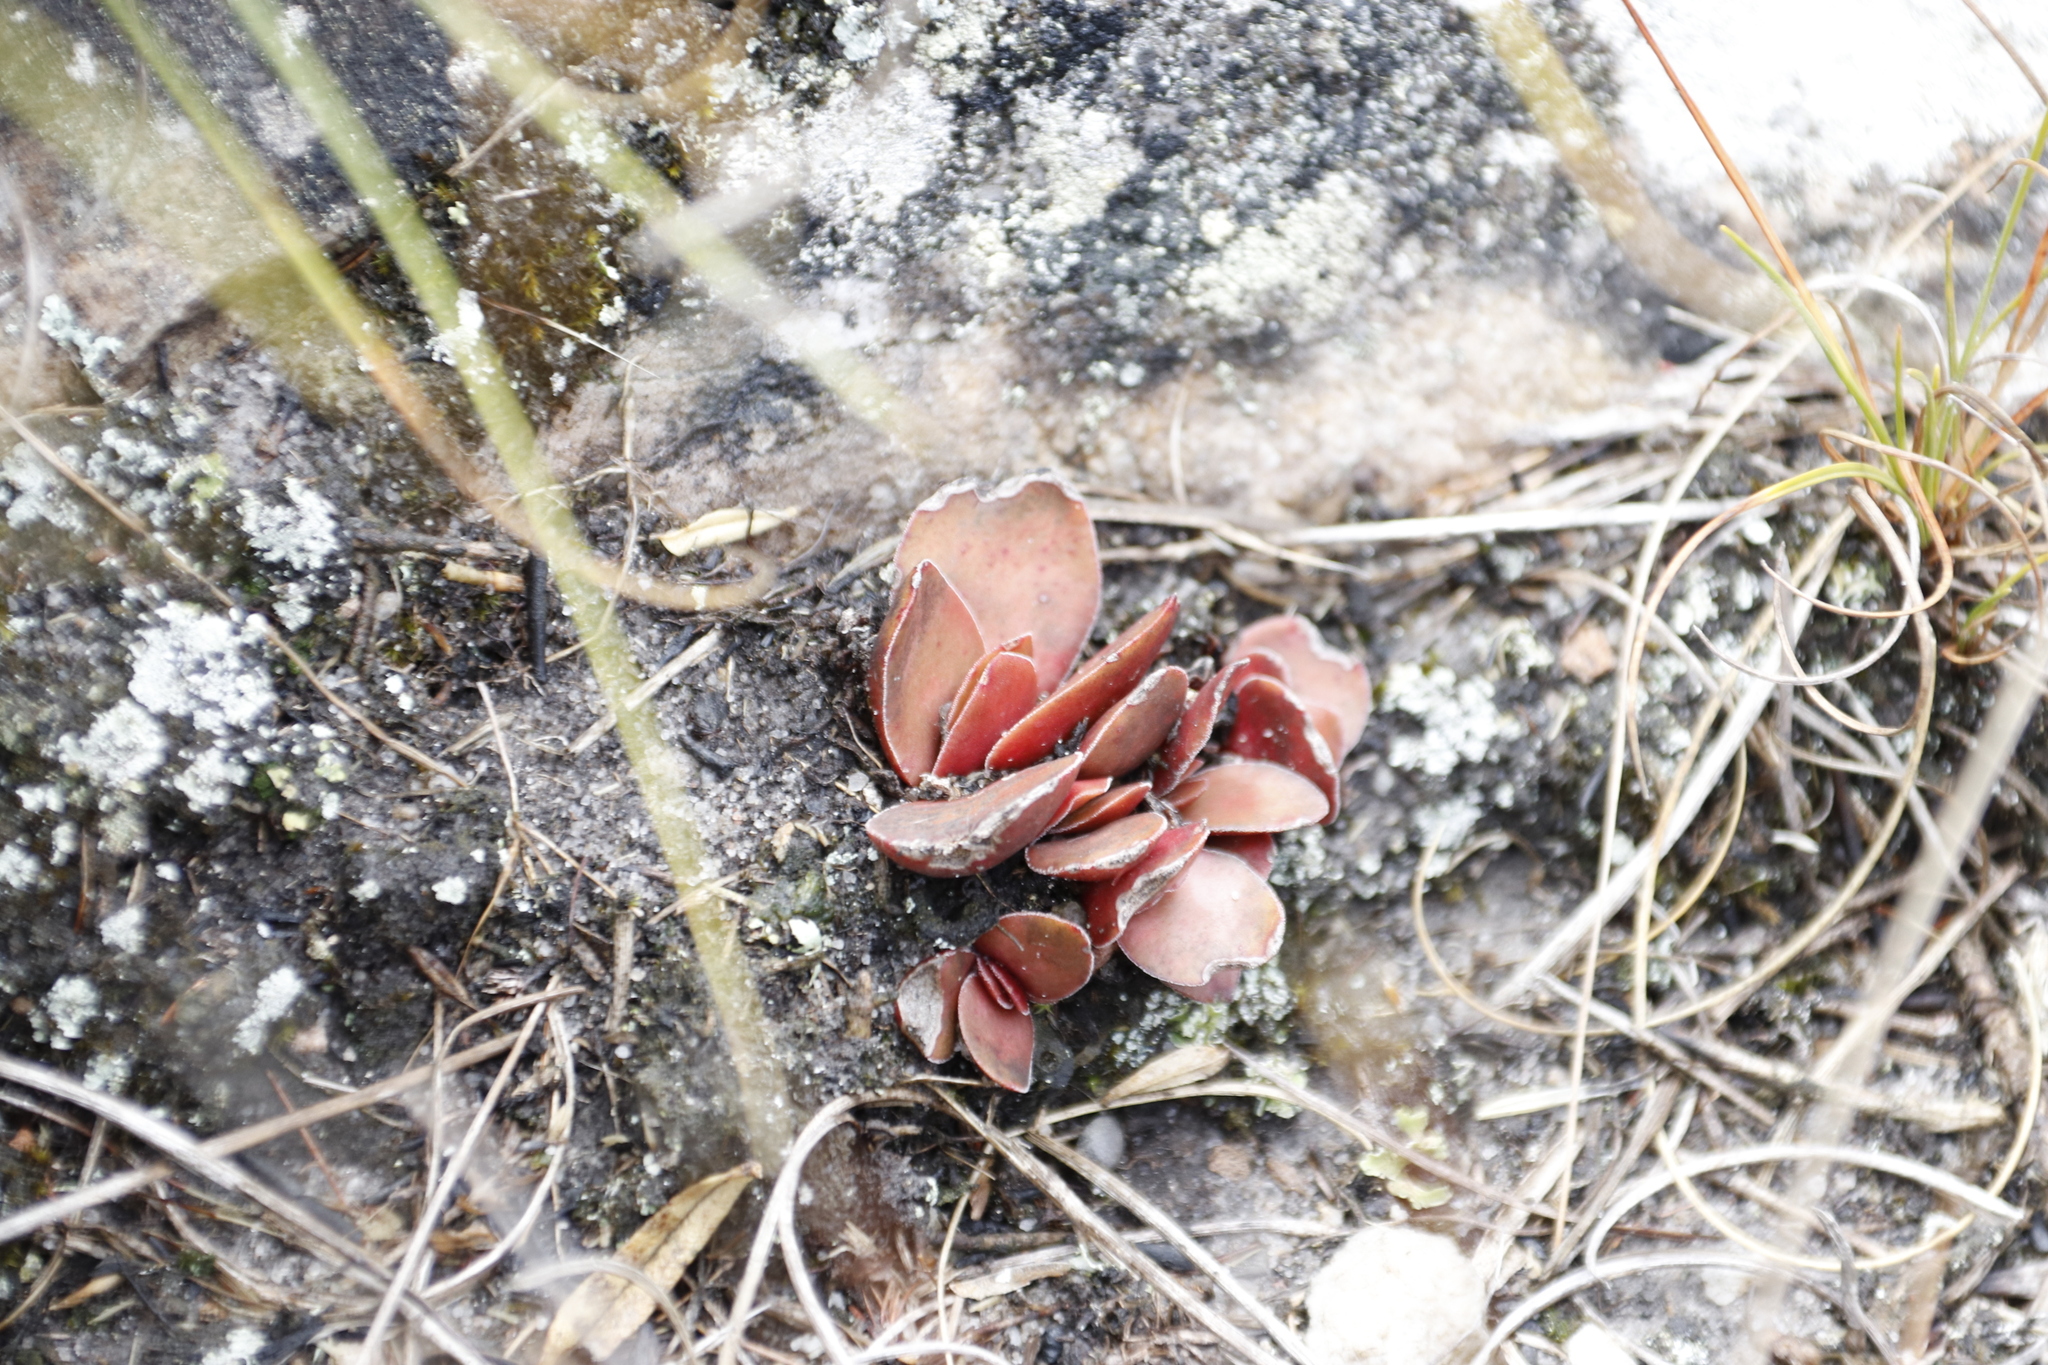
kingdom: Plantae
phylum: Tracheophyta
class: Magnoliopsida
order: Saxifragales
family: Crassulaceae
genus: Crassula
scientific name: Crassula nudicaulis
